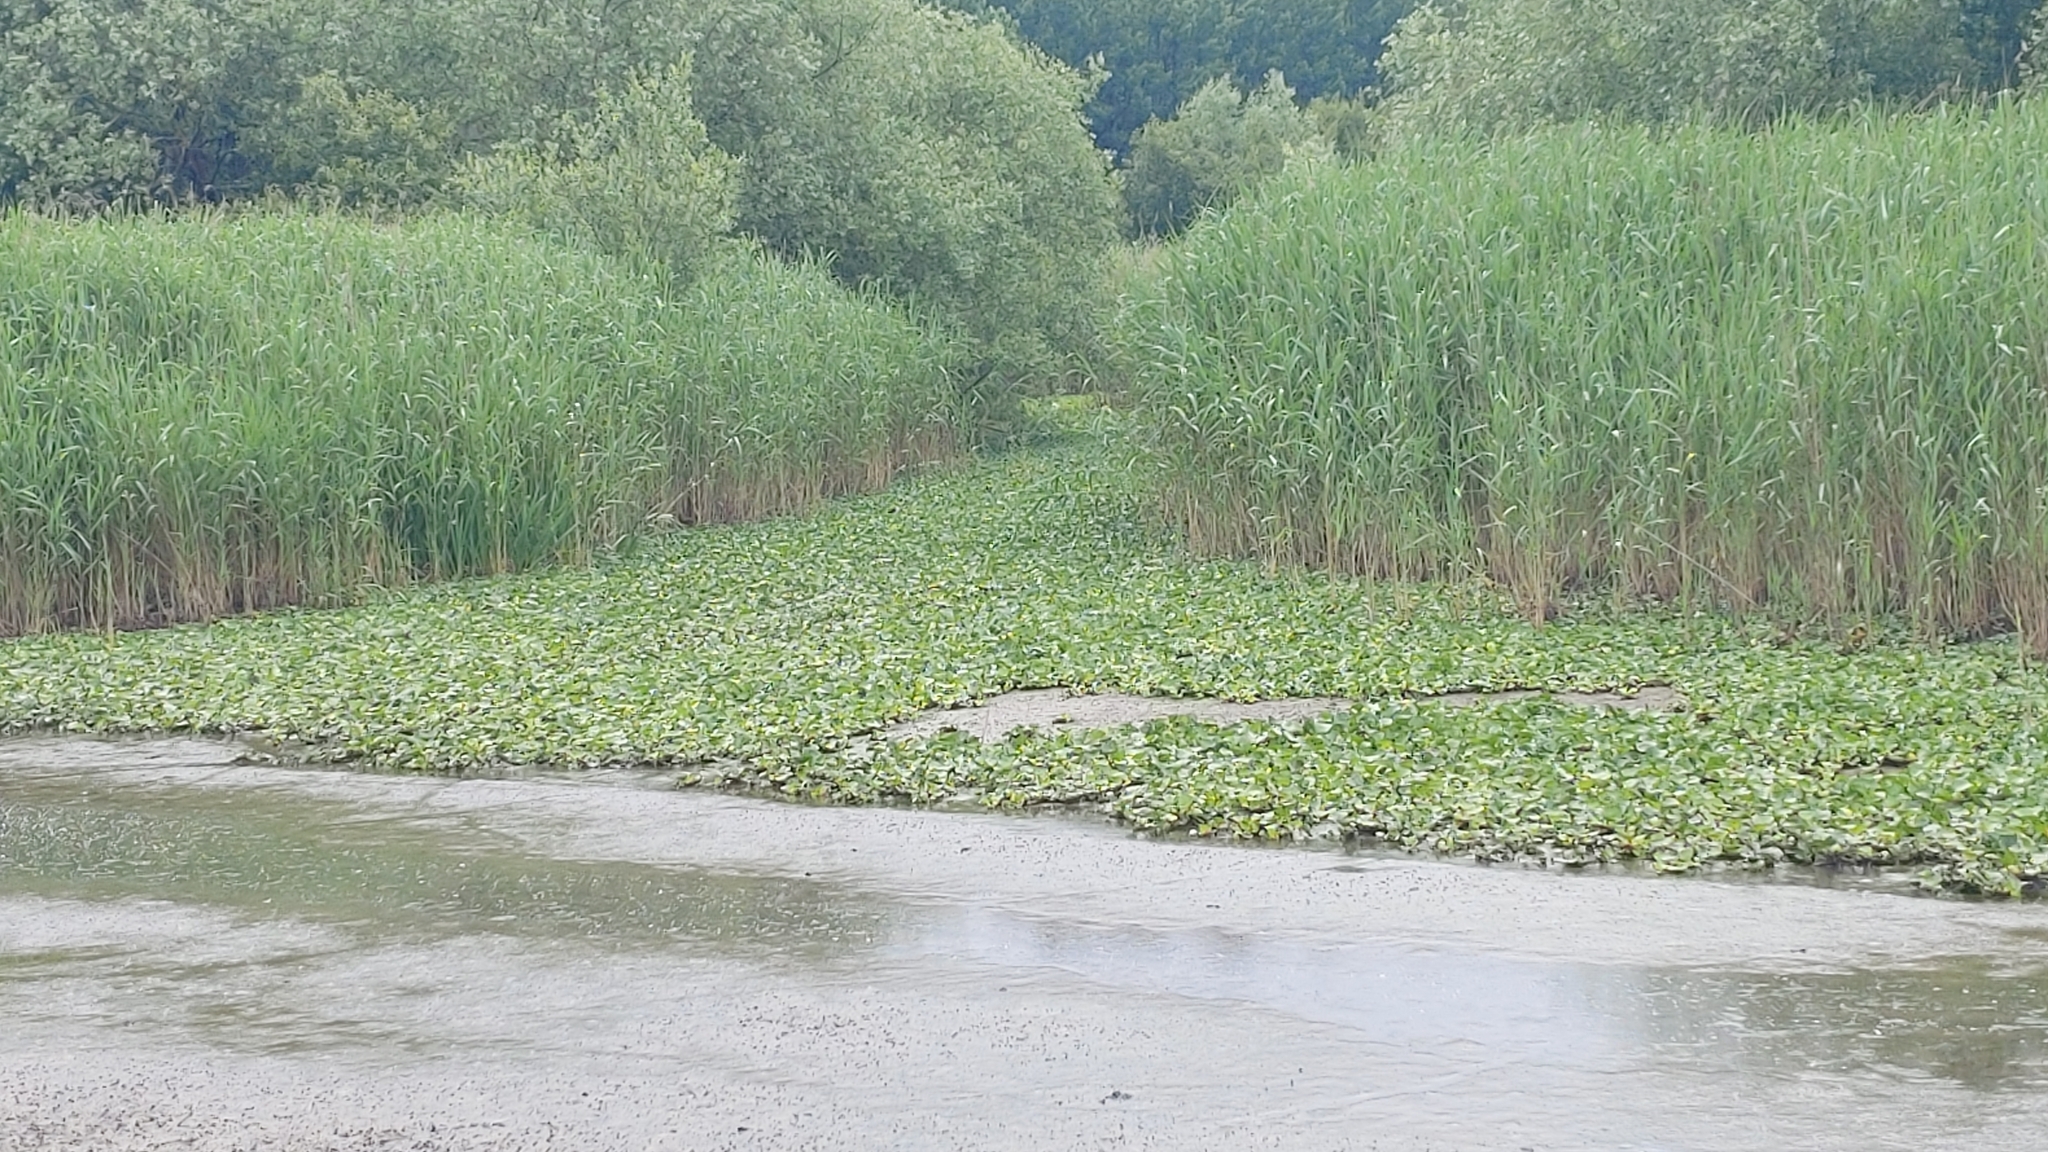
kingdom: Plantae
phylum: Tracheophyta
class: Liliopsida
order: Commelinales
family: Pontederiaceae
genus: Pontederia
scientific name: Pontederia crassipes
